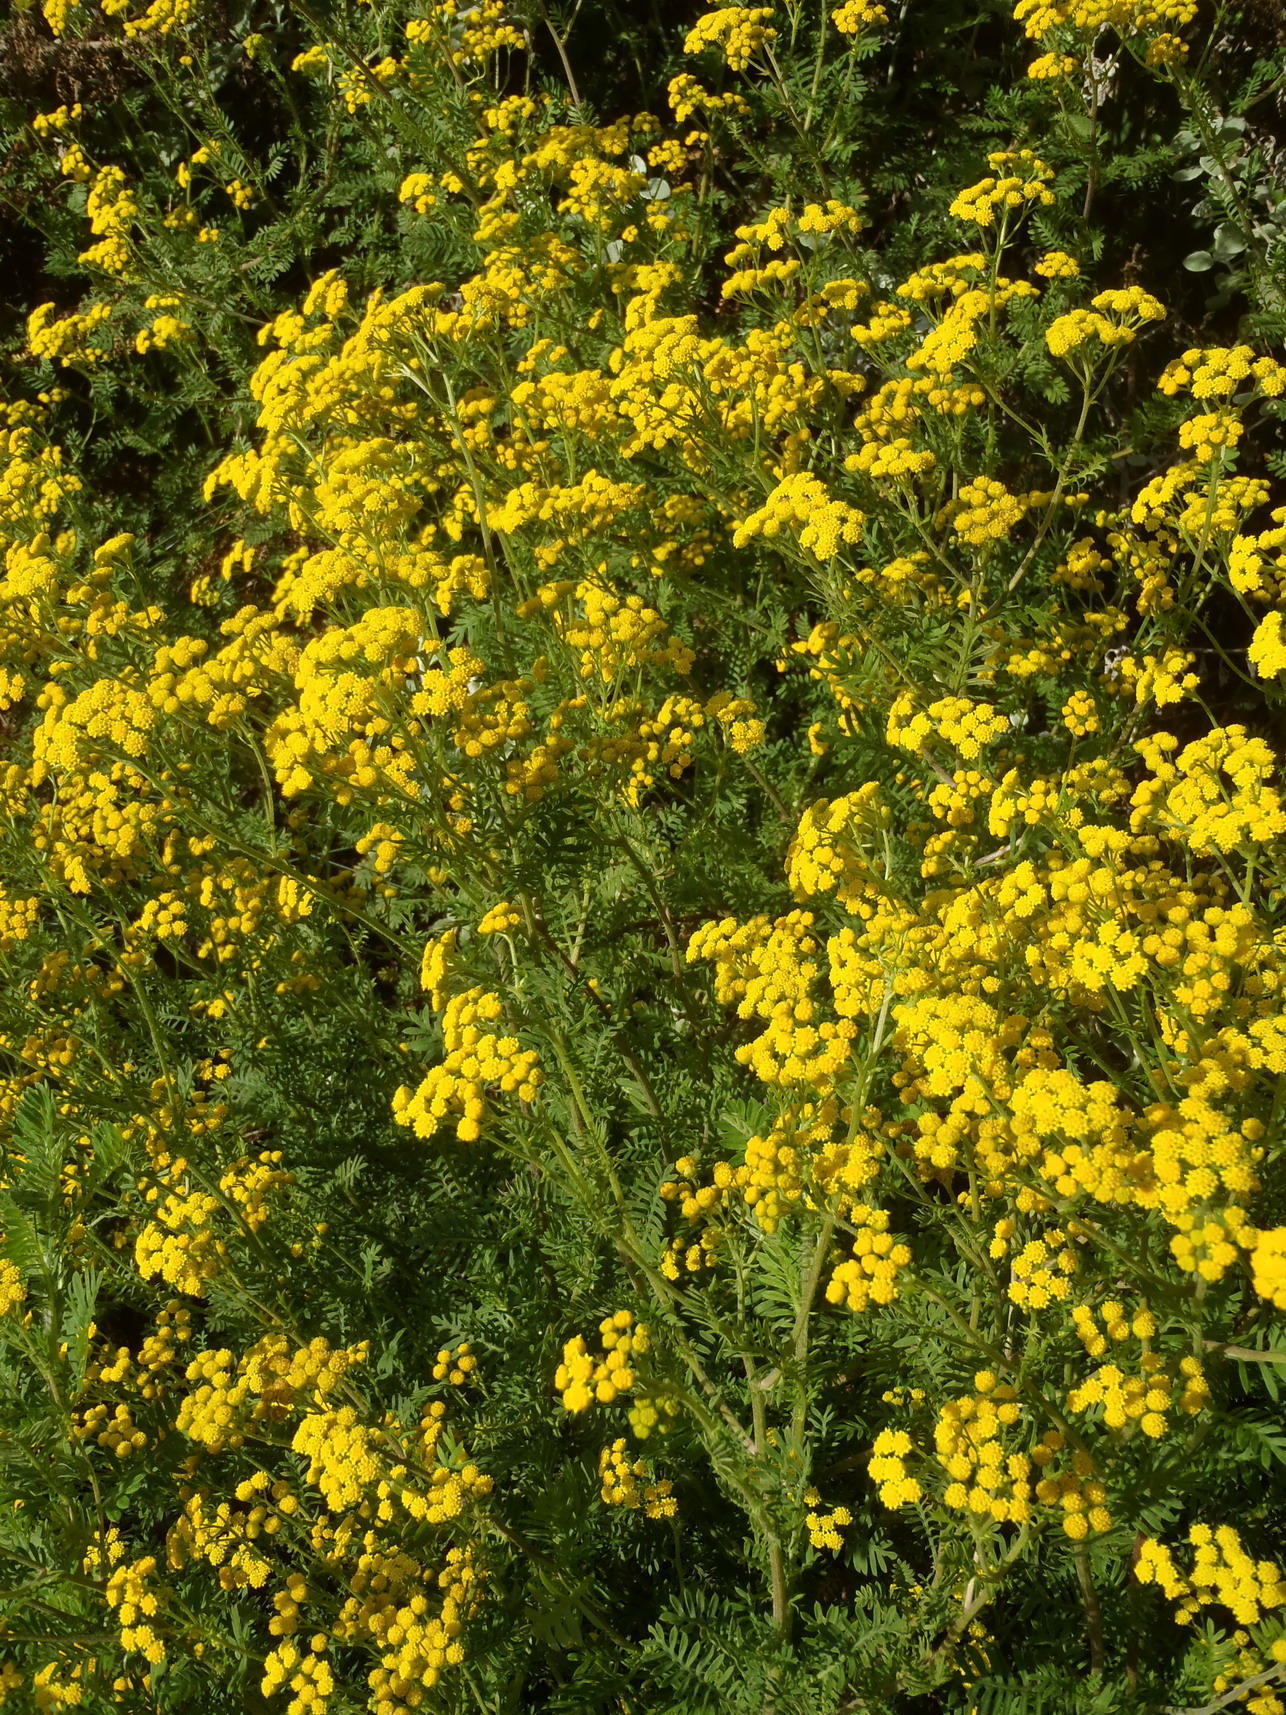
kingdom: Plantae
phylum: Tracheophyta
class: Magnoliopsida
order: Asterales
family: Asteraceae
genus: Hippia
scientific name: Hippia frutescens
